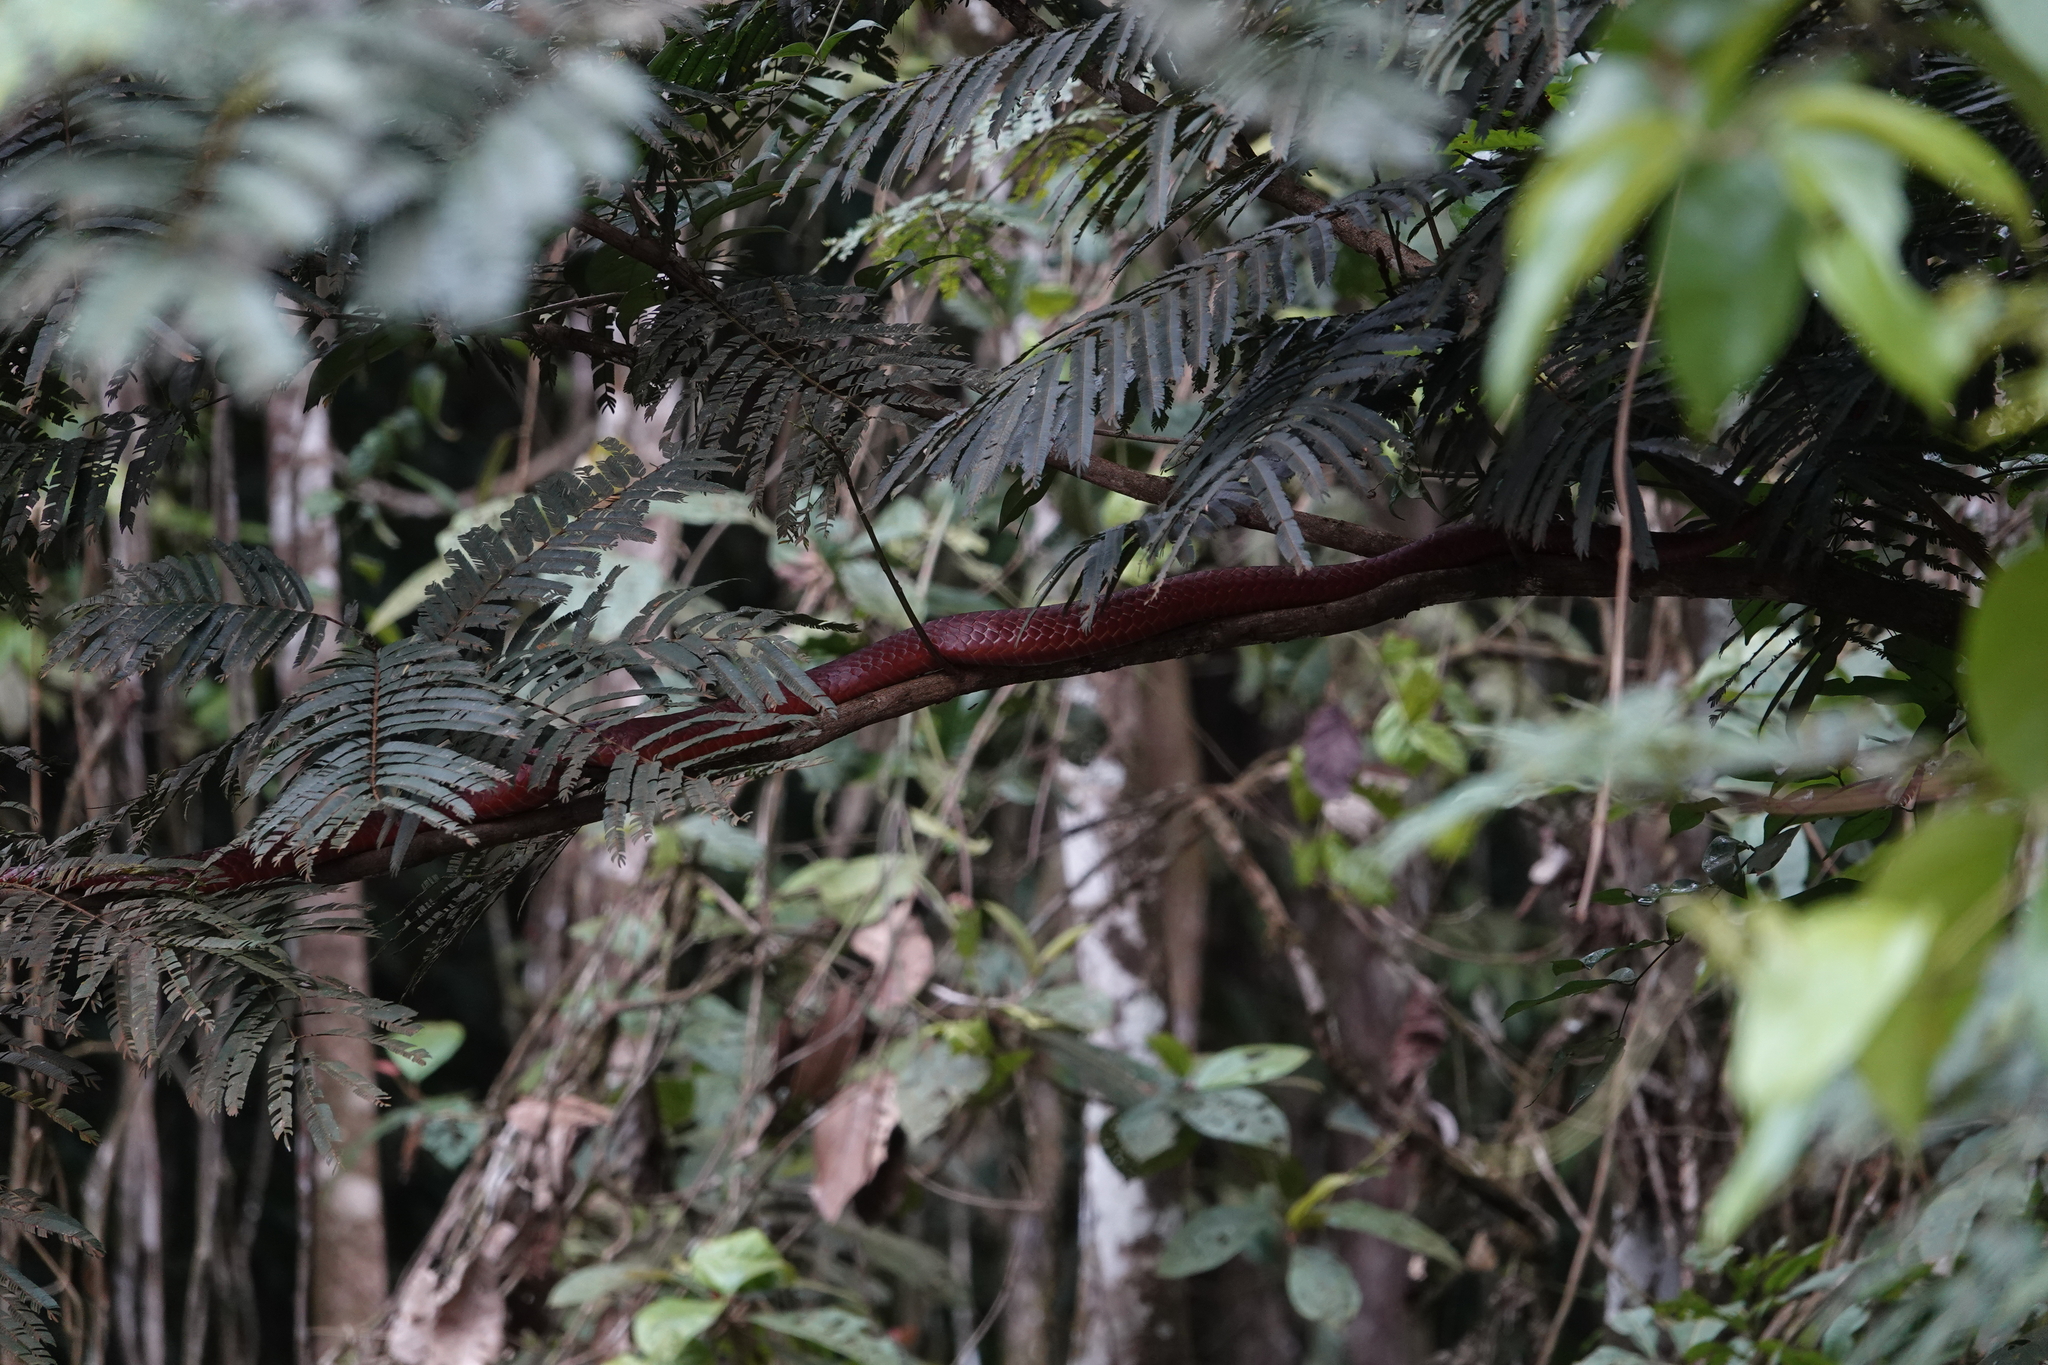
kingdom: Animalia
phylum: Chordata
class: Squamata
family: Colubridae
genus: Chironius
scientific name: Chironius scurrulus
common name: Wagler's sipo
